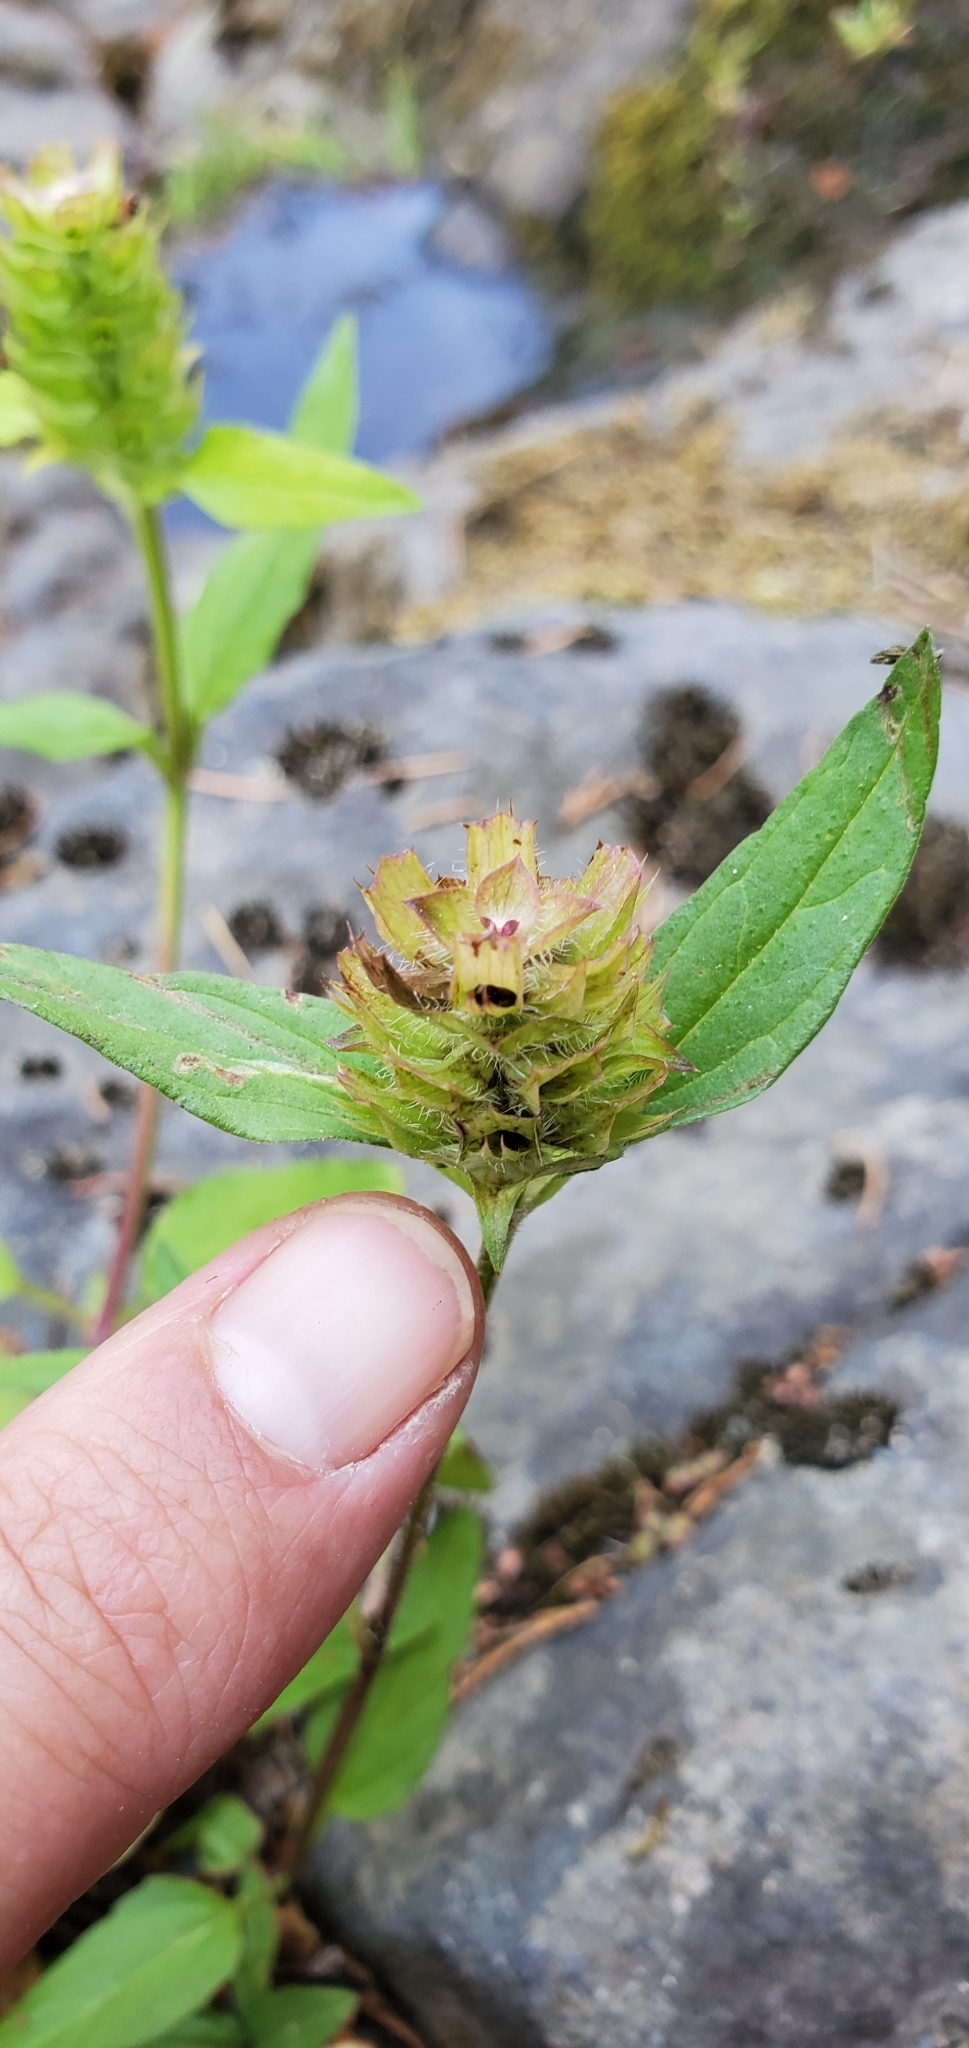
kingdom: Plantae
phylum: Tracheophyta
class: Magnoliopsida
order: Lamiales
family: Lamiaceae
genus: Prunella
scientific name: Prunella vulgaris
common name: Heal-all
